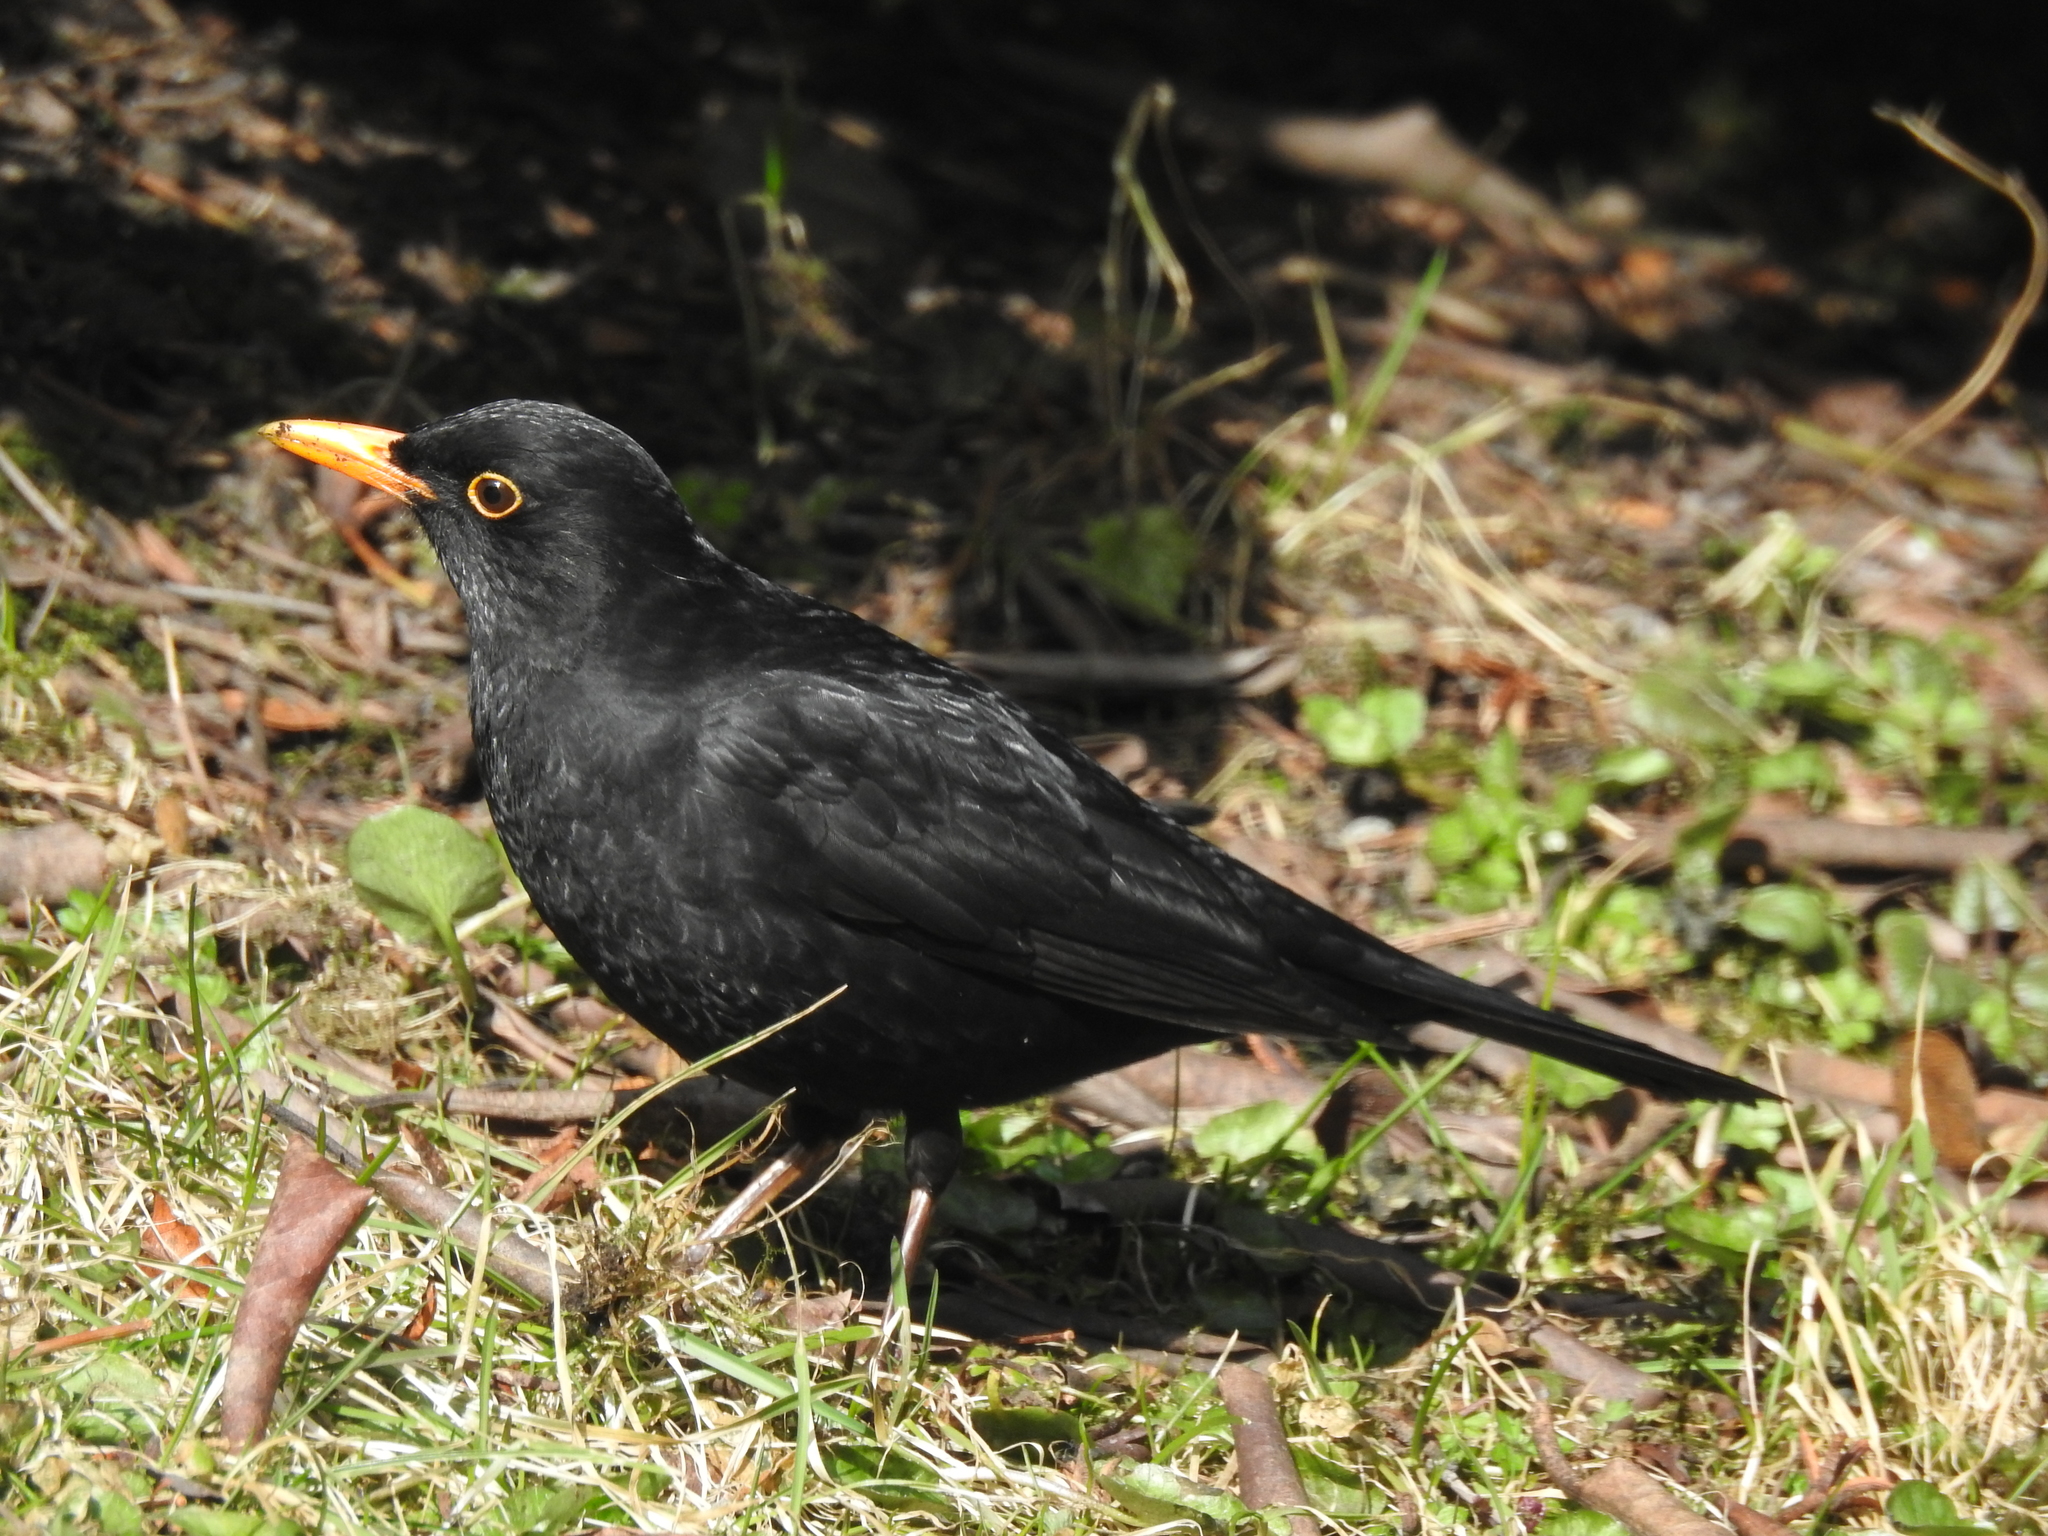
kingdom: Animalia
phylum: Chordata
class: Aves
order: Passeriformes
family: Turdidae
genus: Turdus
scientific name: Turdus merula
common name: Common blackbird
